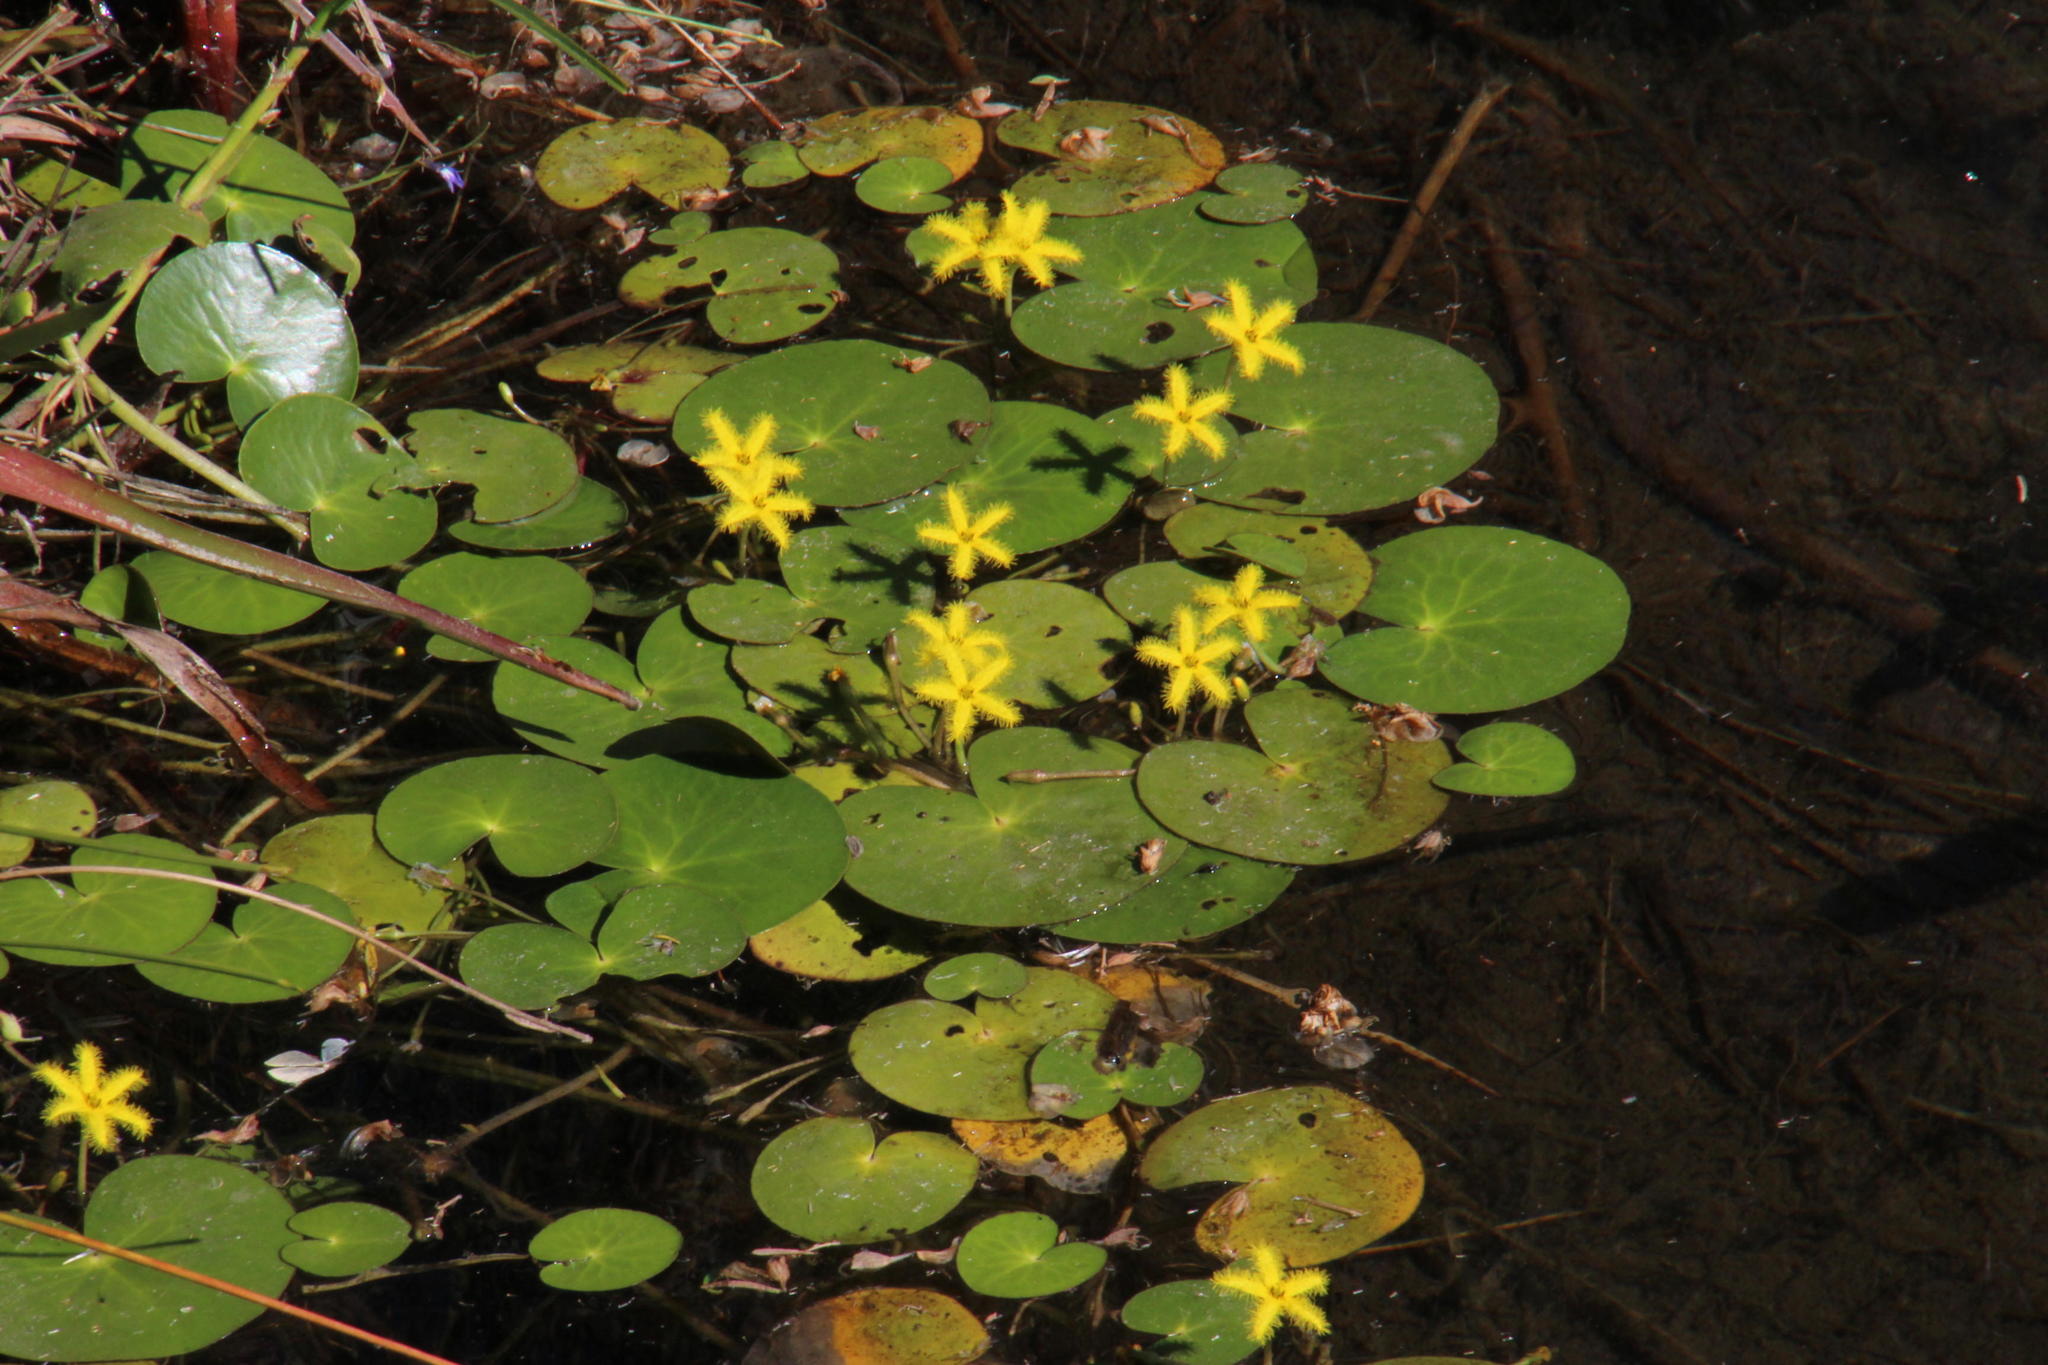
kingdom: Plantae
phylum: Tracheophyta
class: Magnoliopsida
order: Asterales
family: Menyanthaceae
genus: Nymphoides
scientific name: Nymphoides thunbergiana
